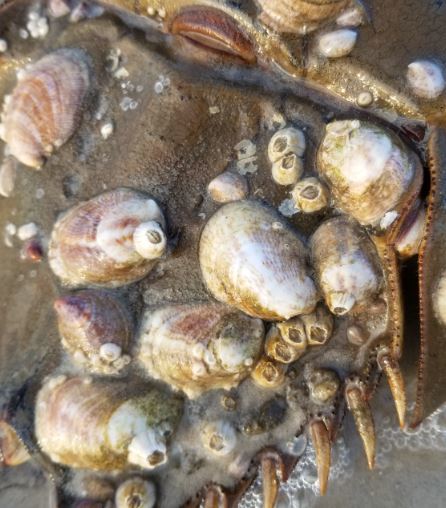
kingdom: Animalia
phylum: Mollusca
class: Gastropoda
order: Littorinimorpha
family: Calyptraeidae
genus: Crepidula
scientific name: Crepidula fornicata
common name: Slipper limpet
